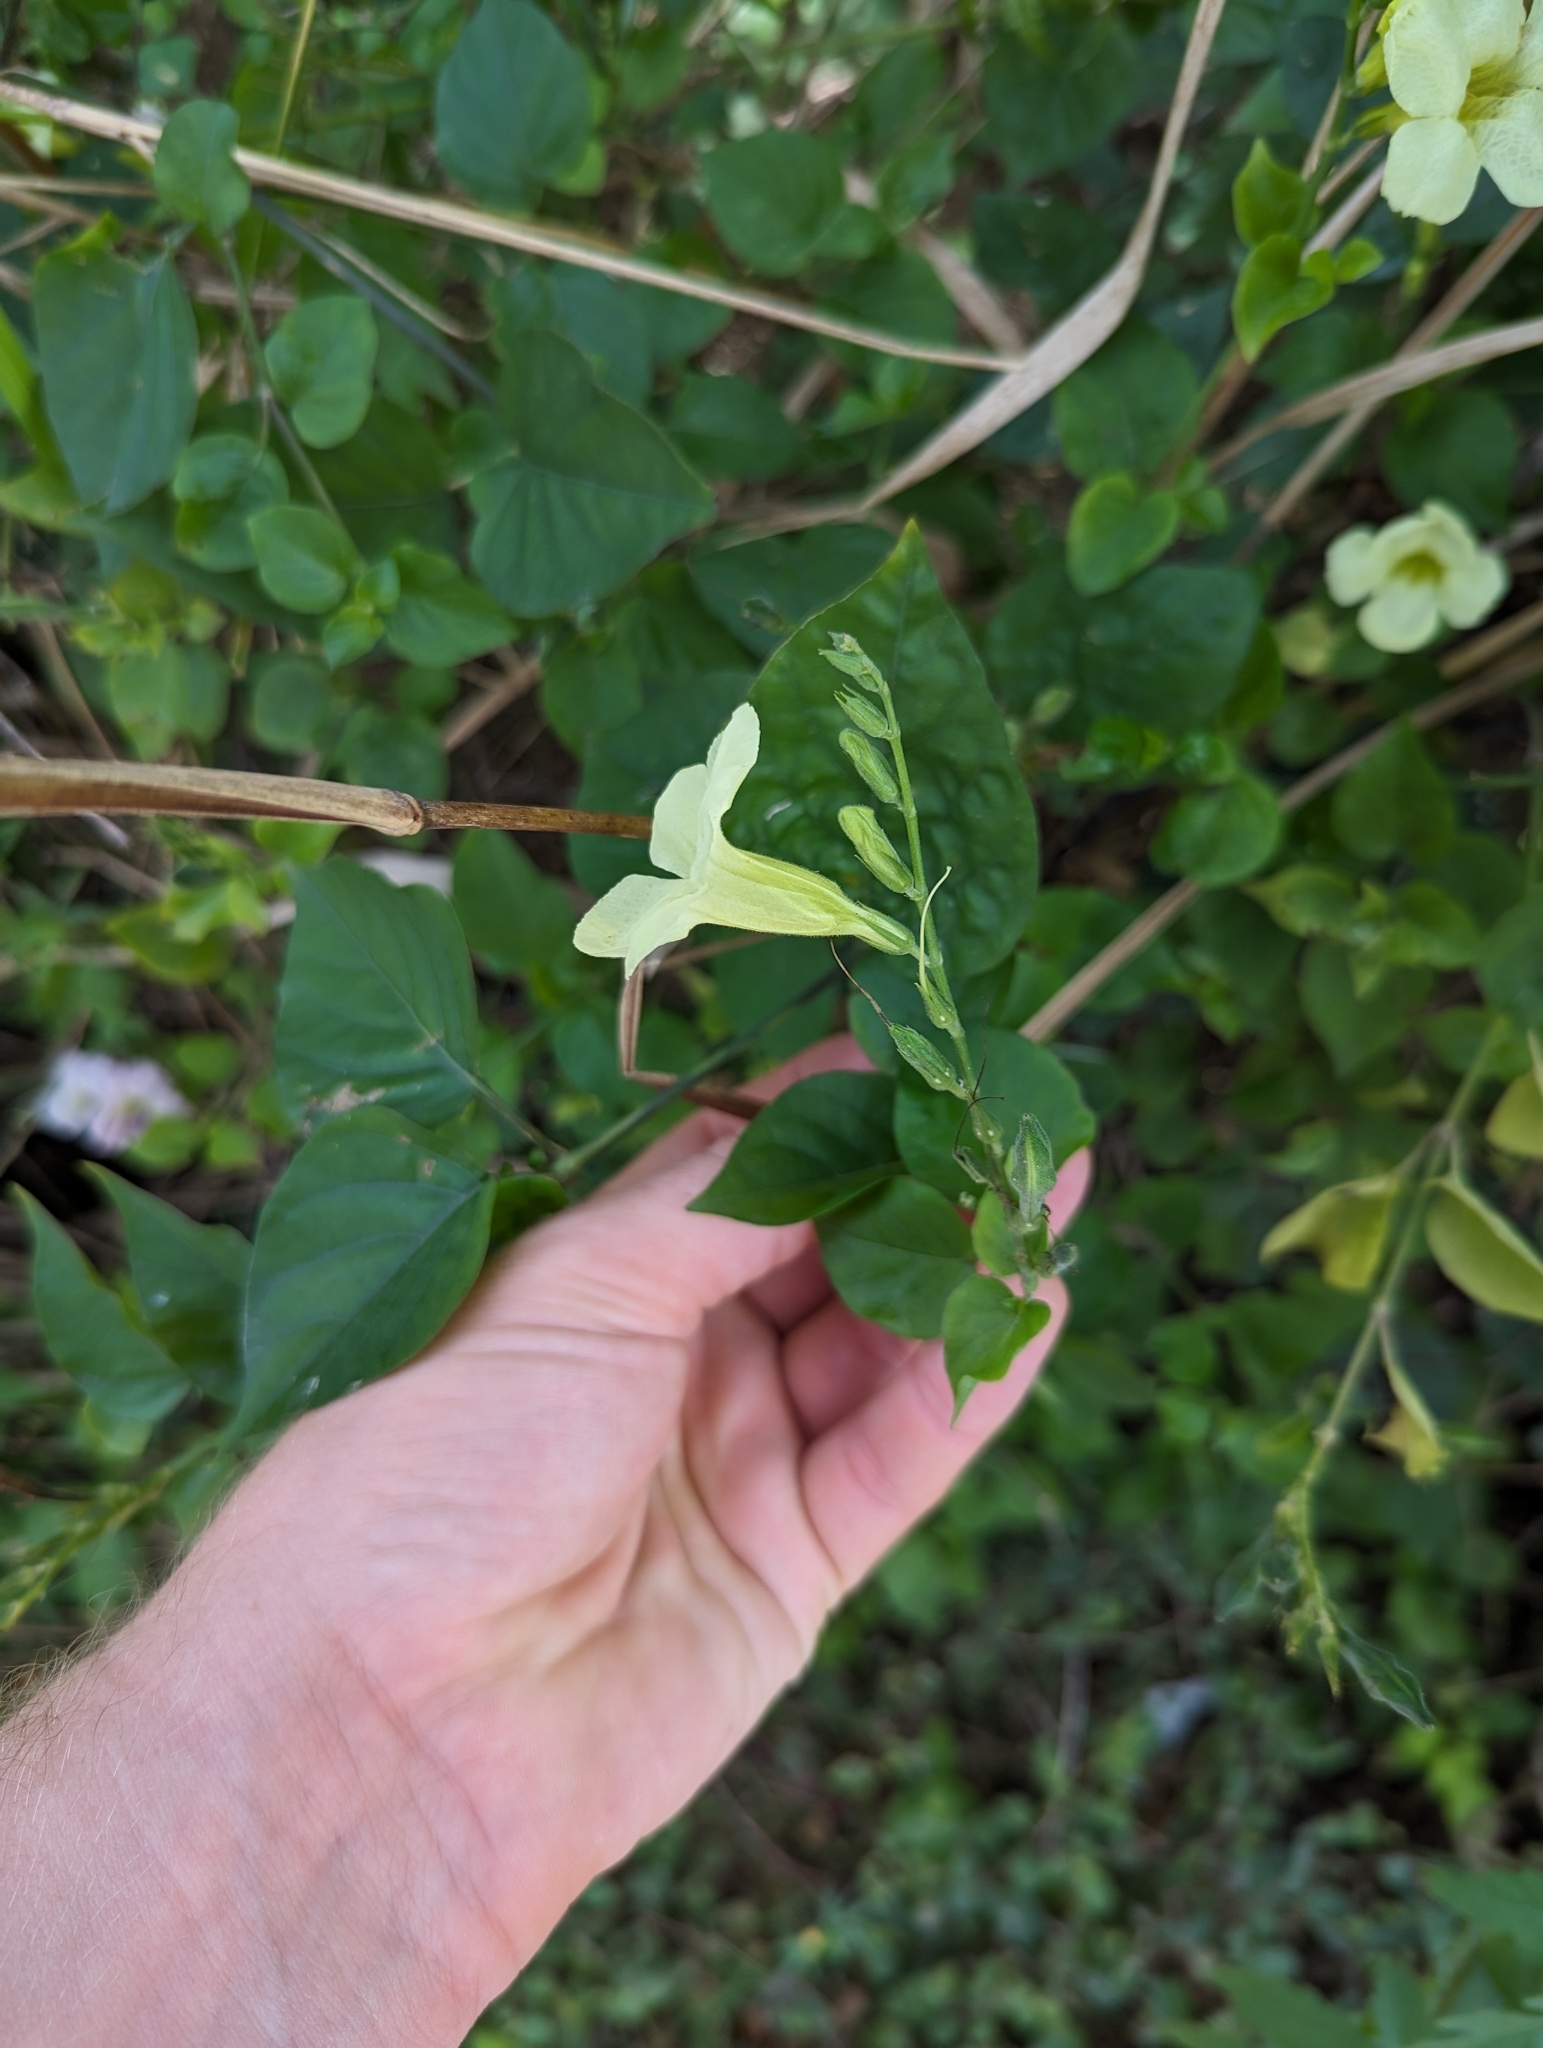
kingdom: Plantae
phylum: Tracheophyta
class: Magnoliopsida
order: Lamiales
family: Acanthaceae
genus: Asystasia
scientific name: Asystasia gangetica
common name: Chinese violet
